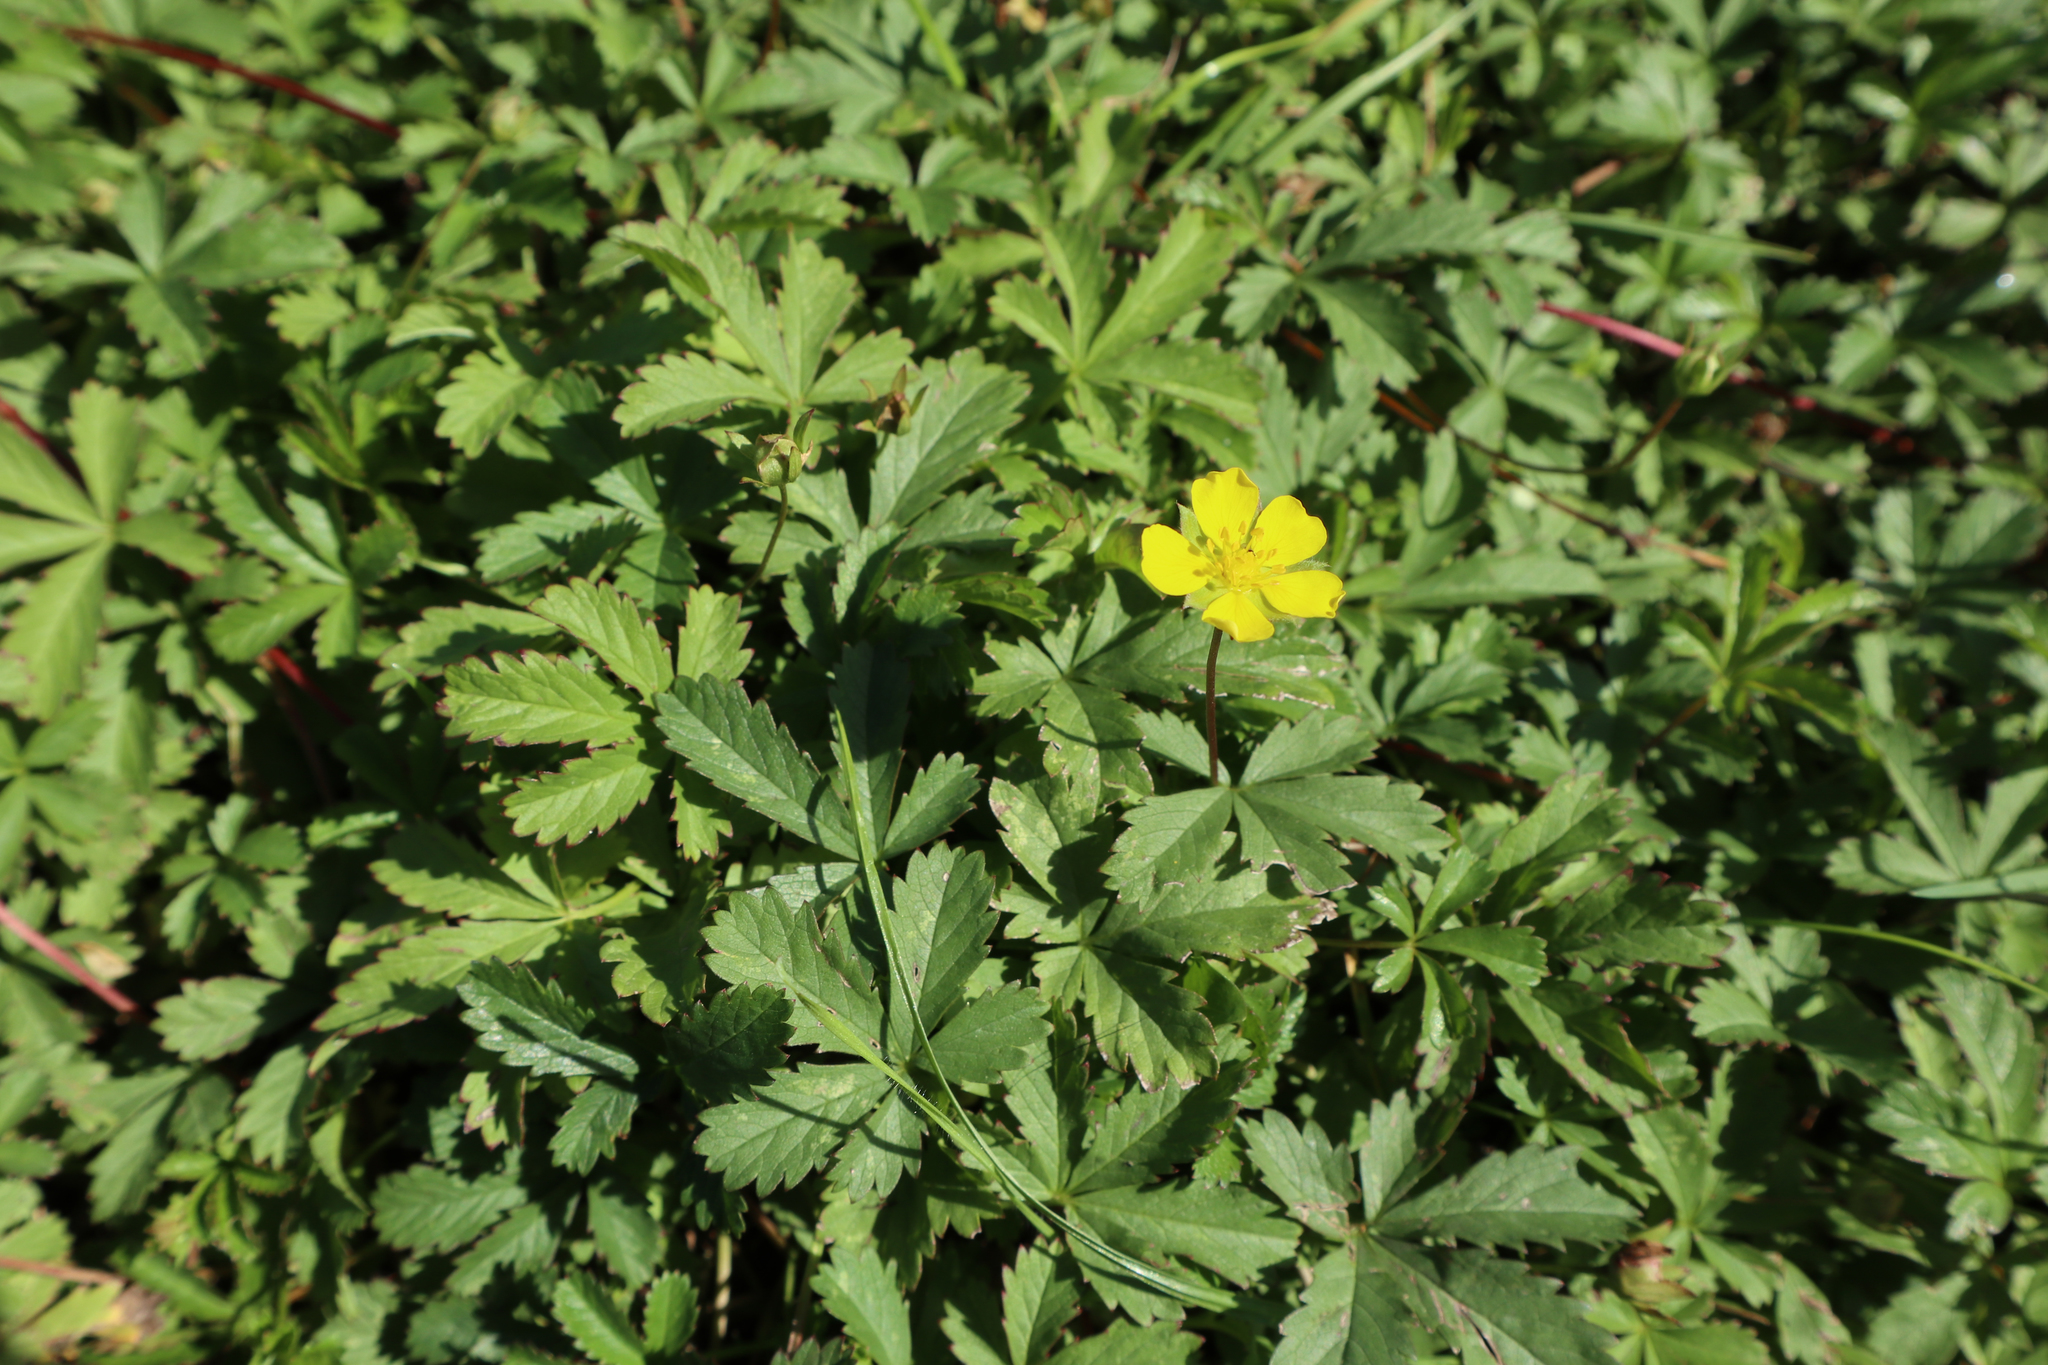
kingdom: Plantae
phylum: Tracheophyta
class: Magnoliopsida
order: Rosales
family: Rosaceae
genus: Potentilla
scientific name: Potentilla reptans
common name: Creeping cinquefoil
